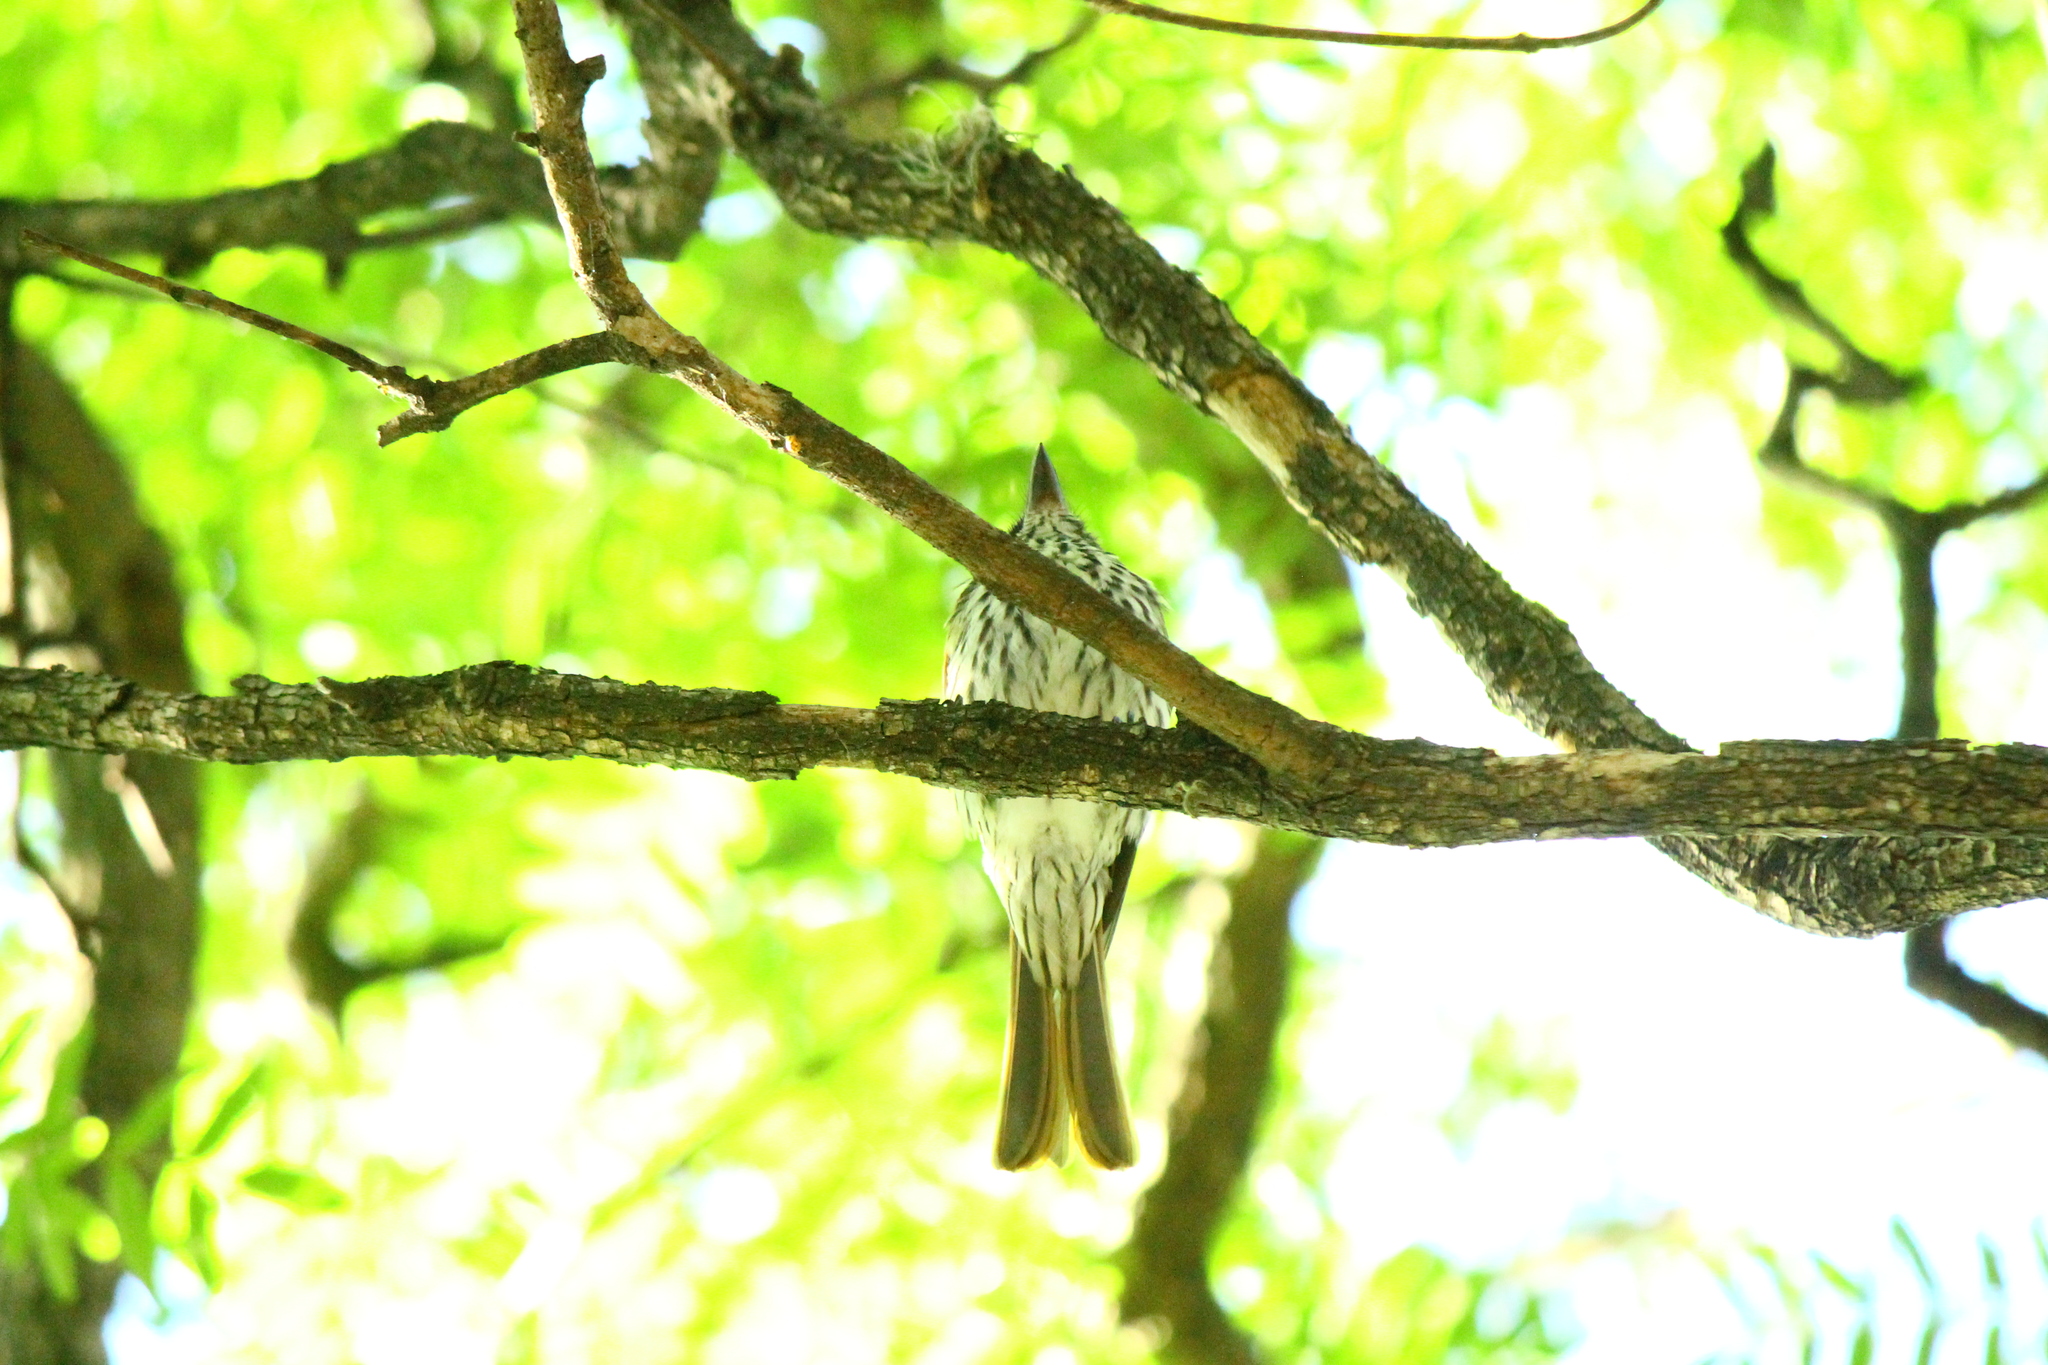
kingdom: Animalia
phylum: Chordata
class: Aves
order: Passeriformes
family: Tyrannidae
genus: Myiodynastes
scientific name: Myiodynastes maculatus
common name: Streaked flycatcher
